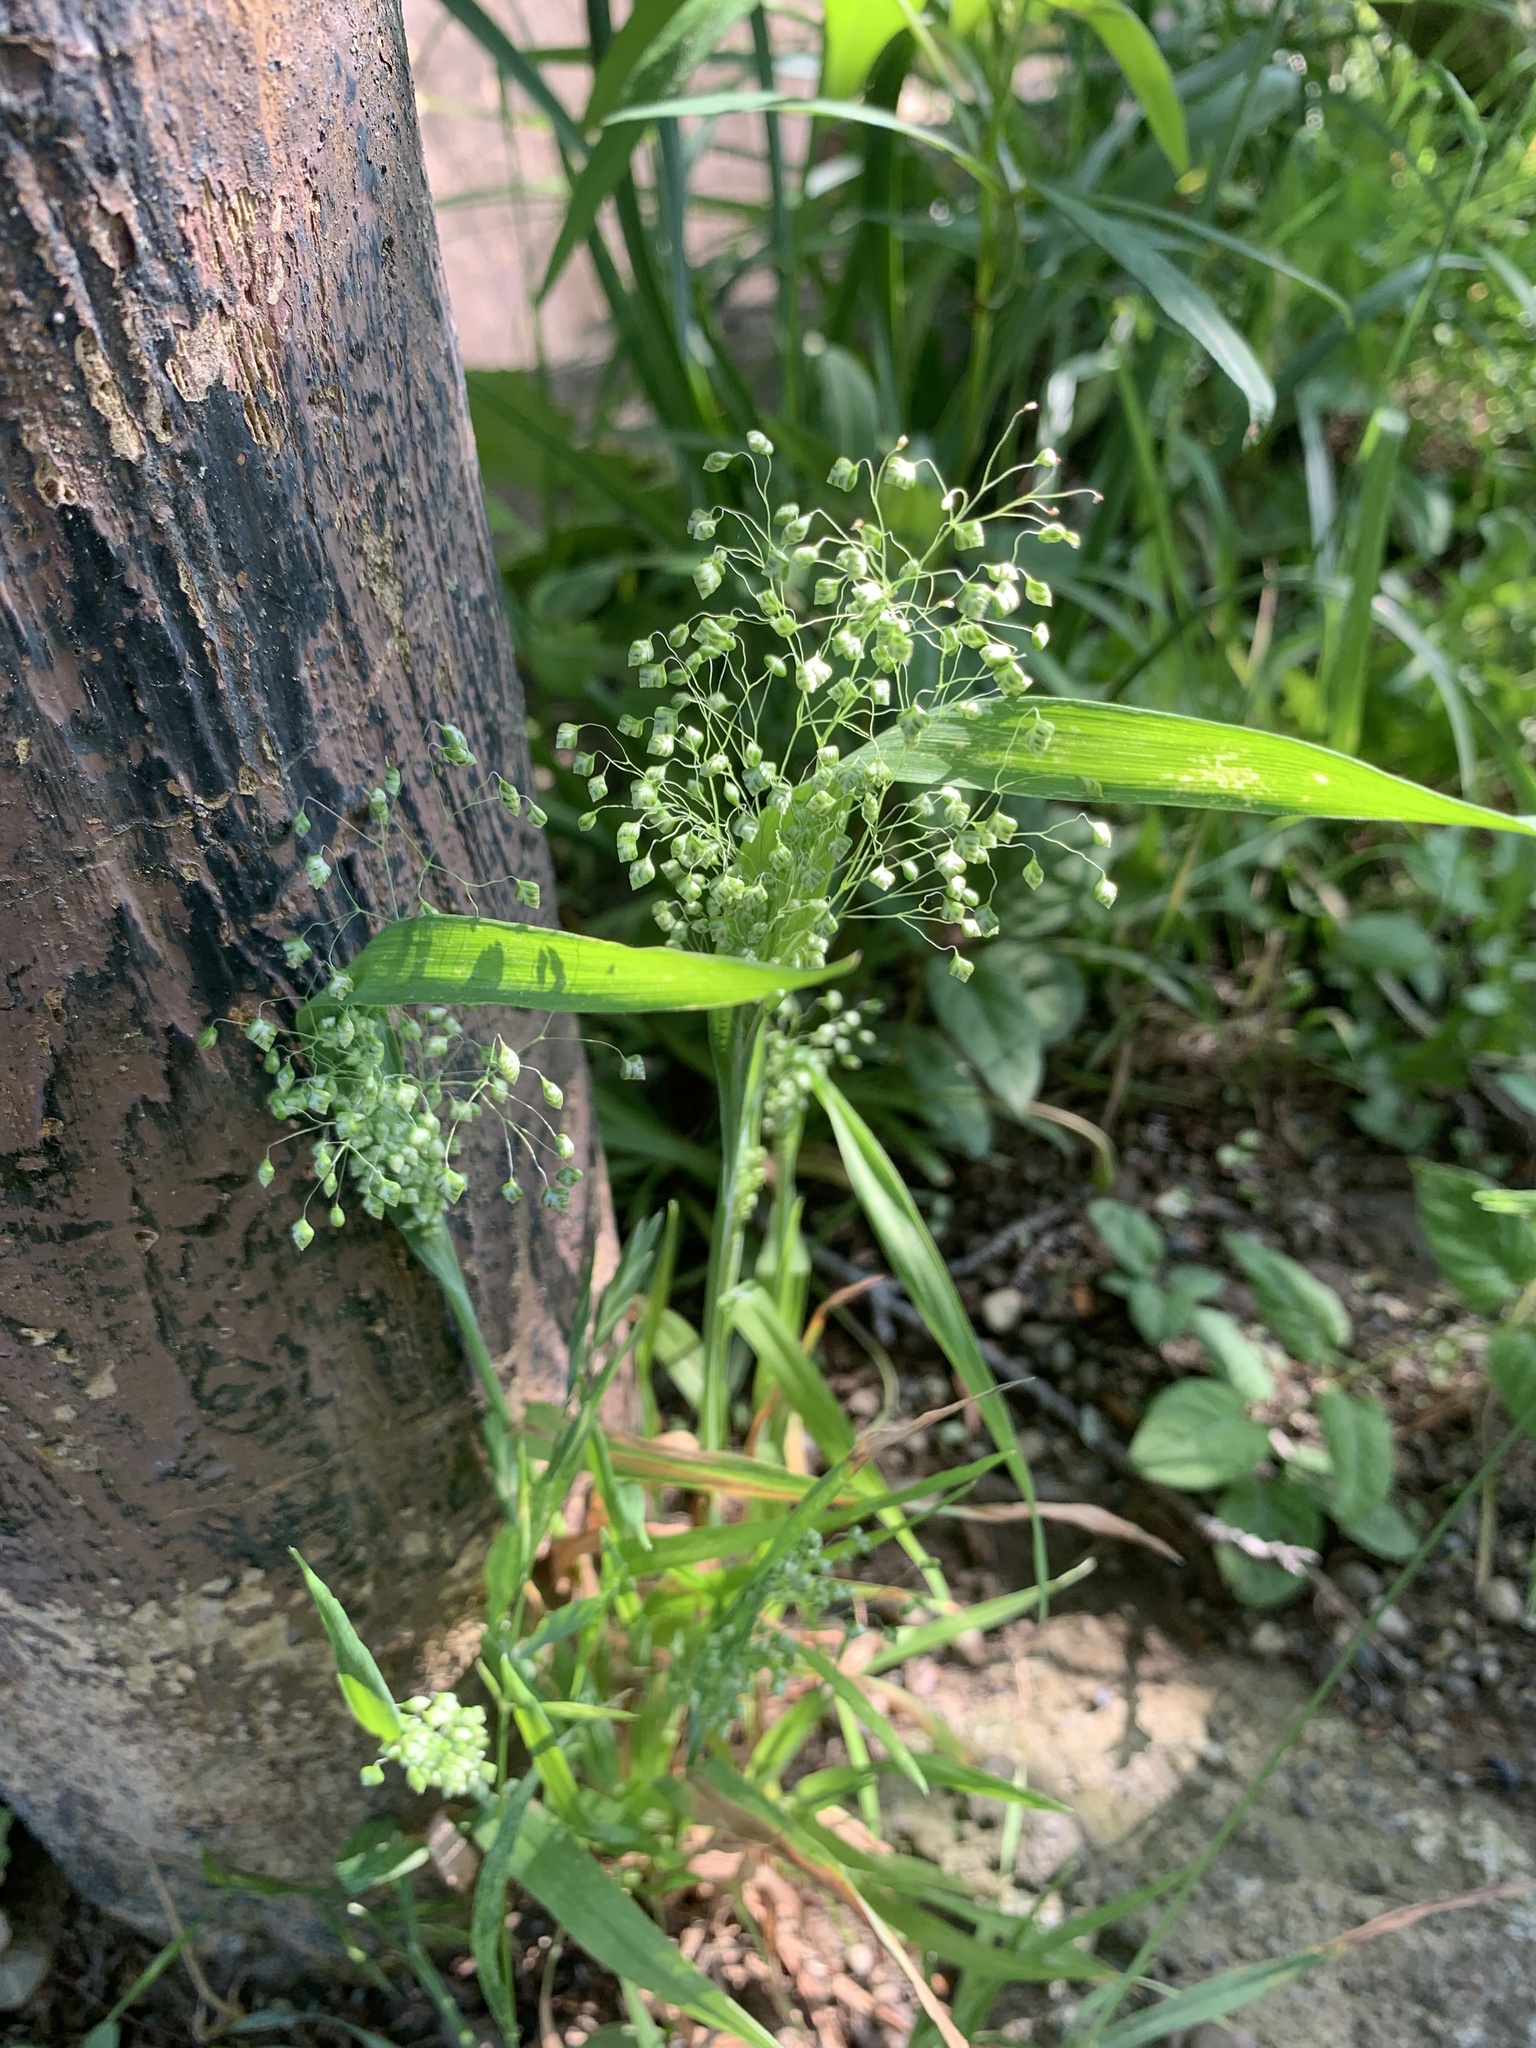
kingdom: Plantae
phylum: Tracheophyta
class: Liliopsida
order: Poales
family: Poaceae
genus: Briza
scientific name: Briza minor
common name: Lesser quaking-grass
